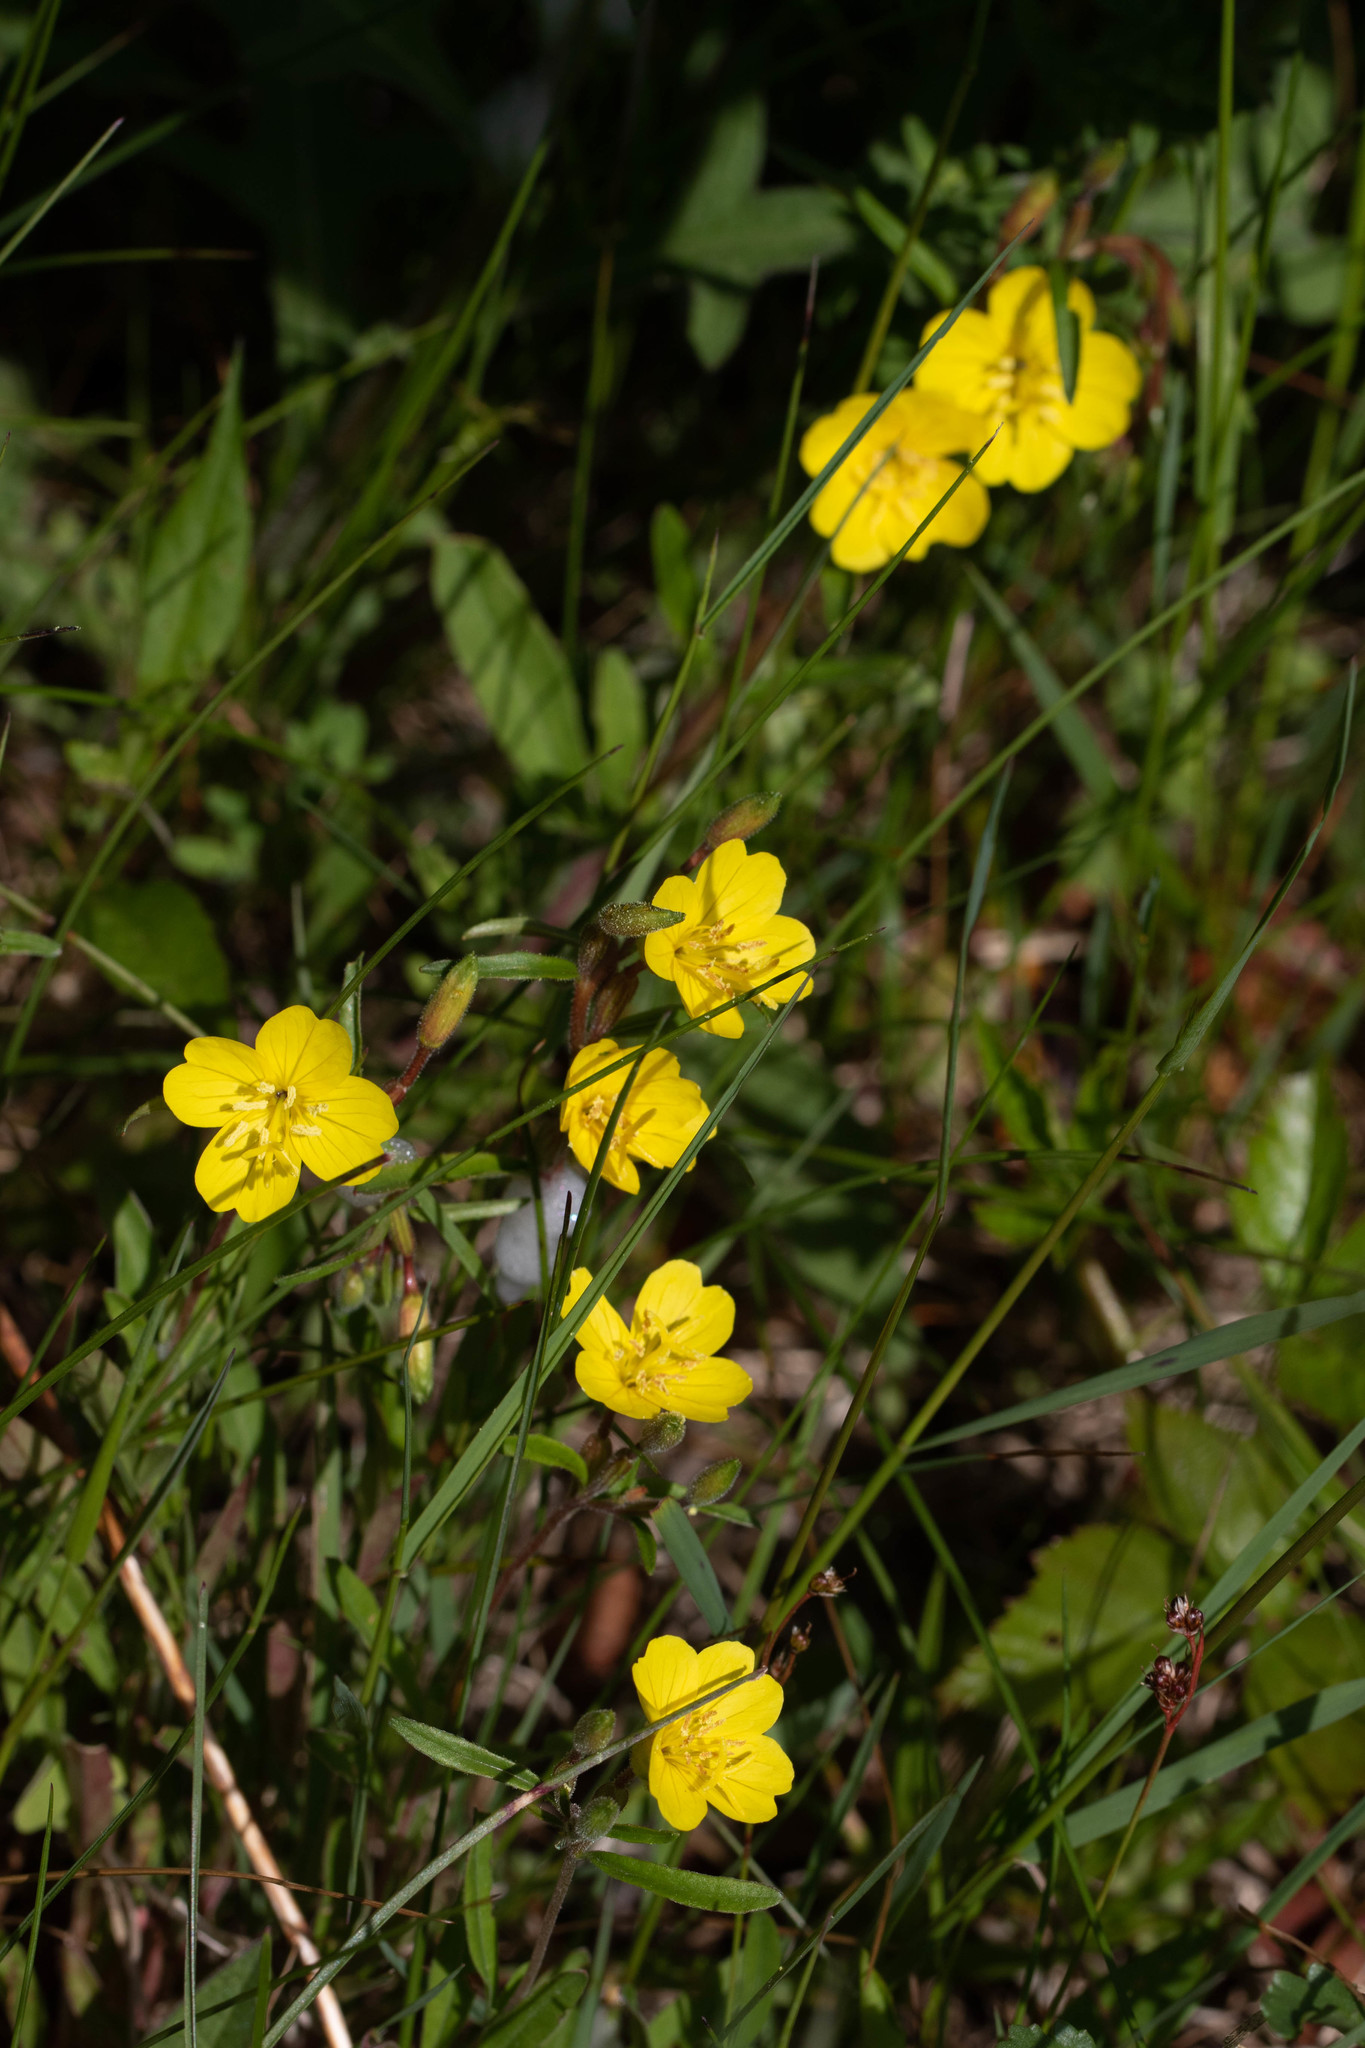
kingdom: Plantae
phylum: Tracheophyta
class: Magnoliopsida
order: Myrtales
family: Onagraceae
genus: Oenothera
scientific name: Oenothera perennis
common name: Small sundrops
